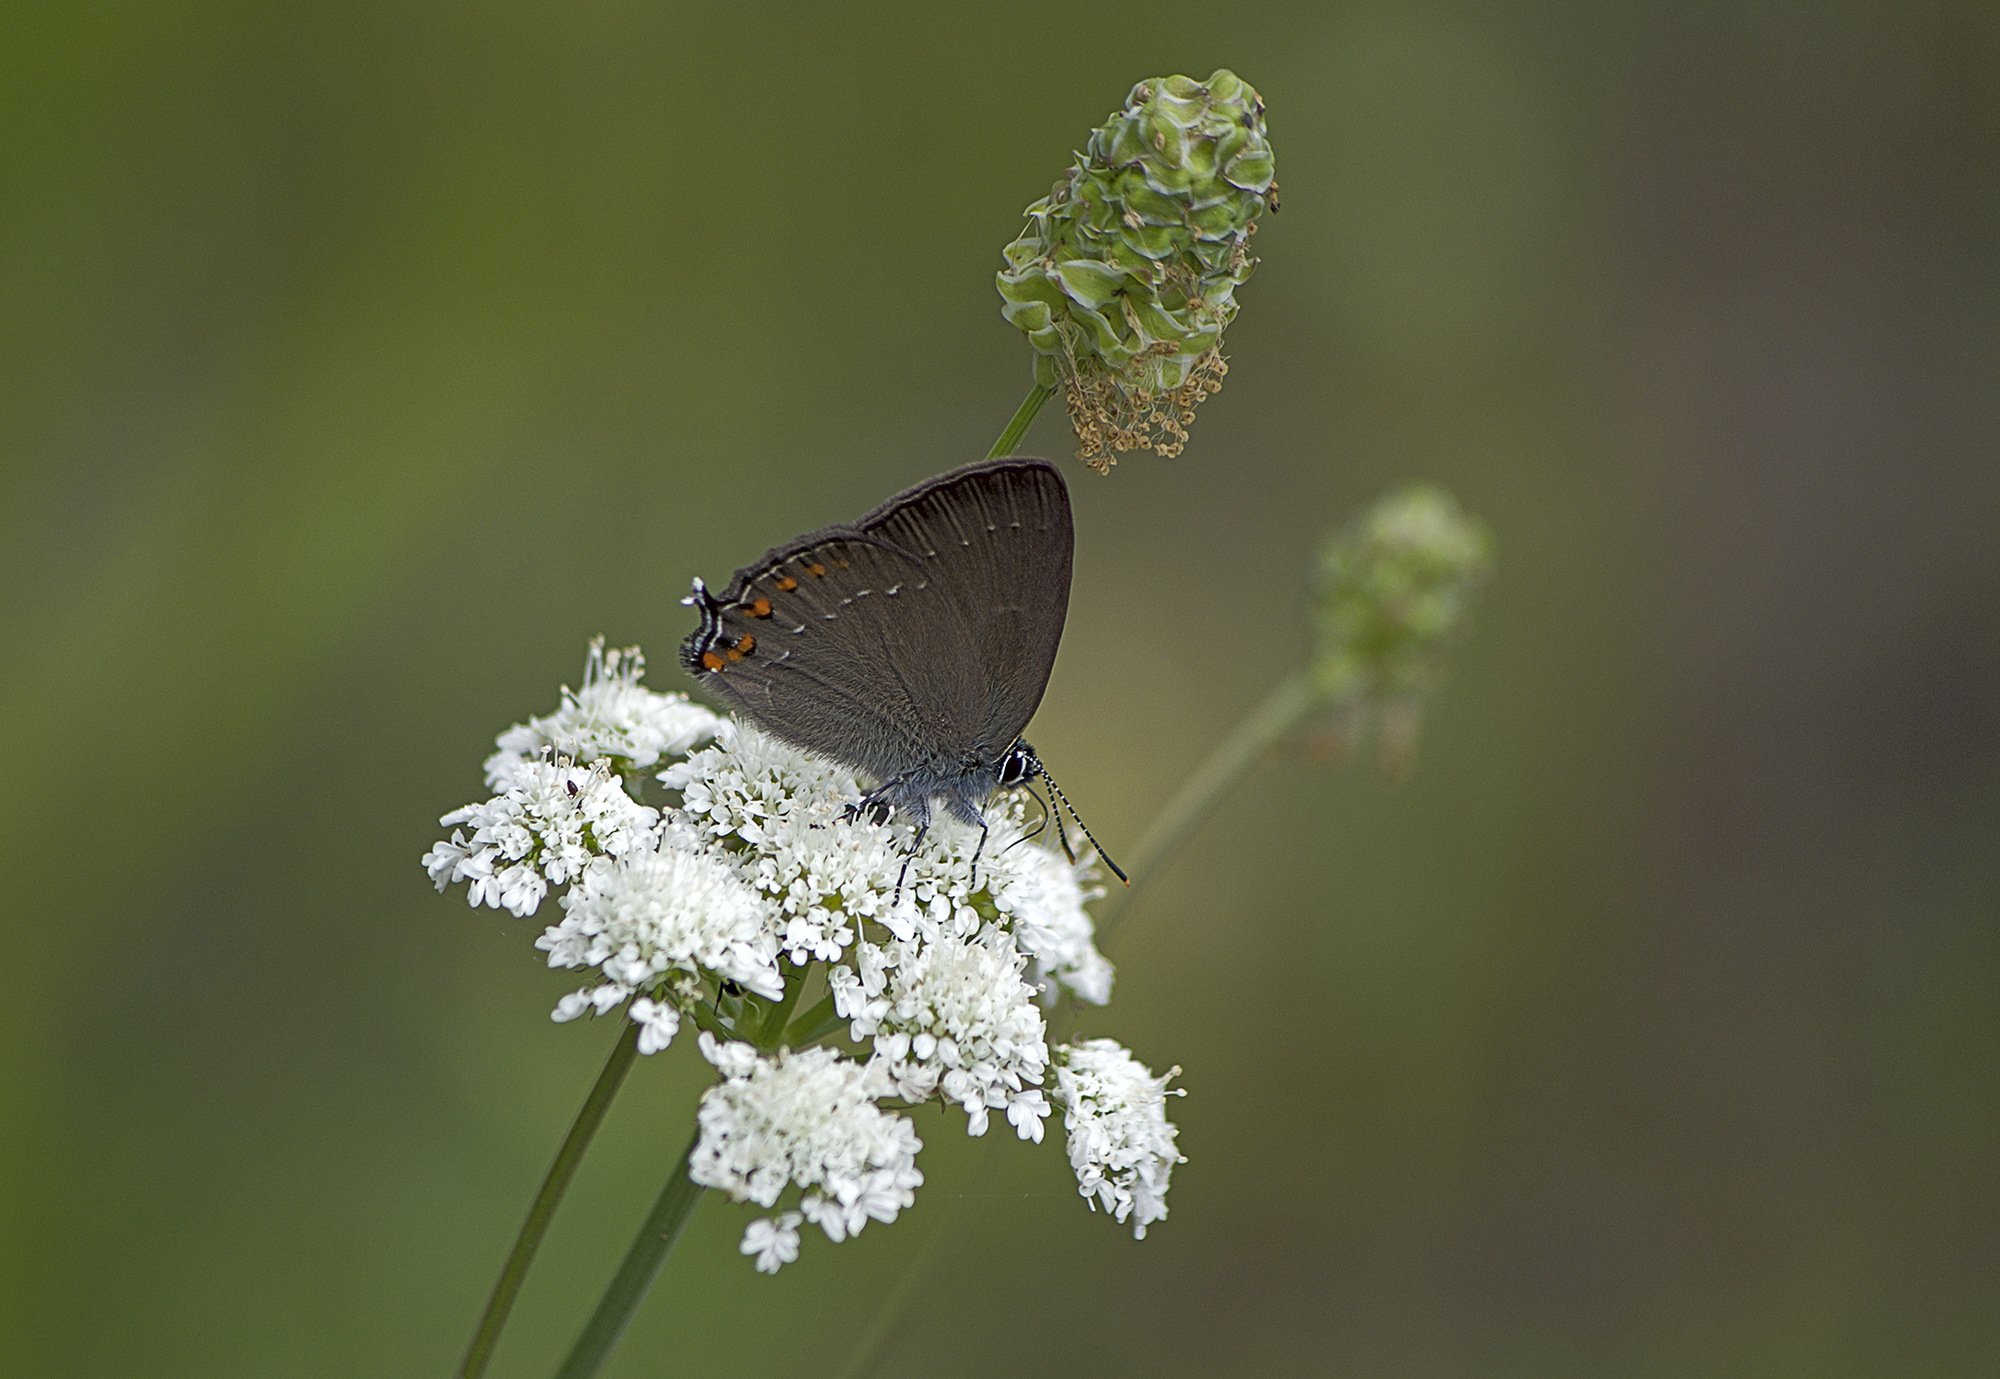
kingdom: Animalia
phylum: Arthropoda
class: Insecta
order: Lepidoptera
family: Lycaenidae
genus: Nordmannia
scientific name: Nordmannia ilicis
